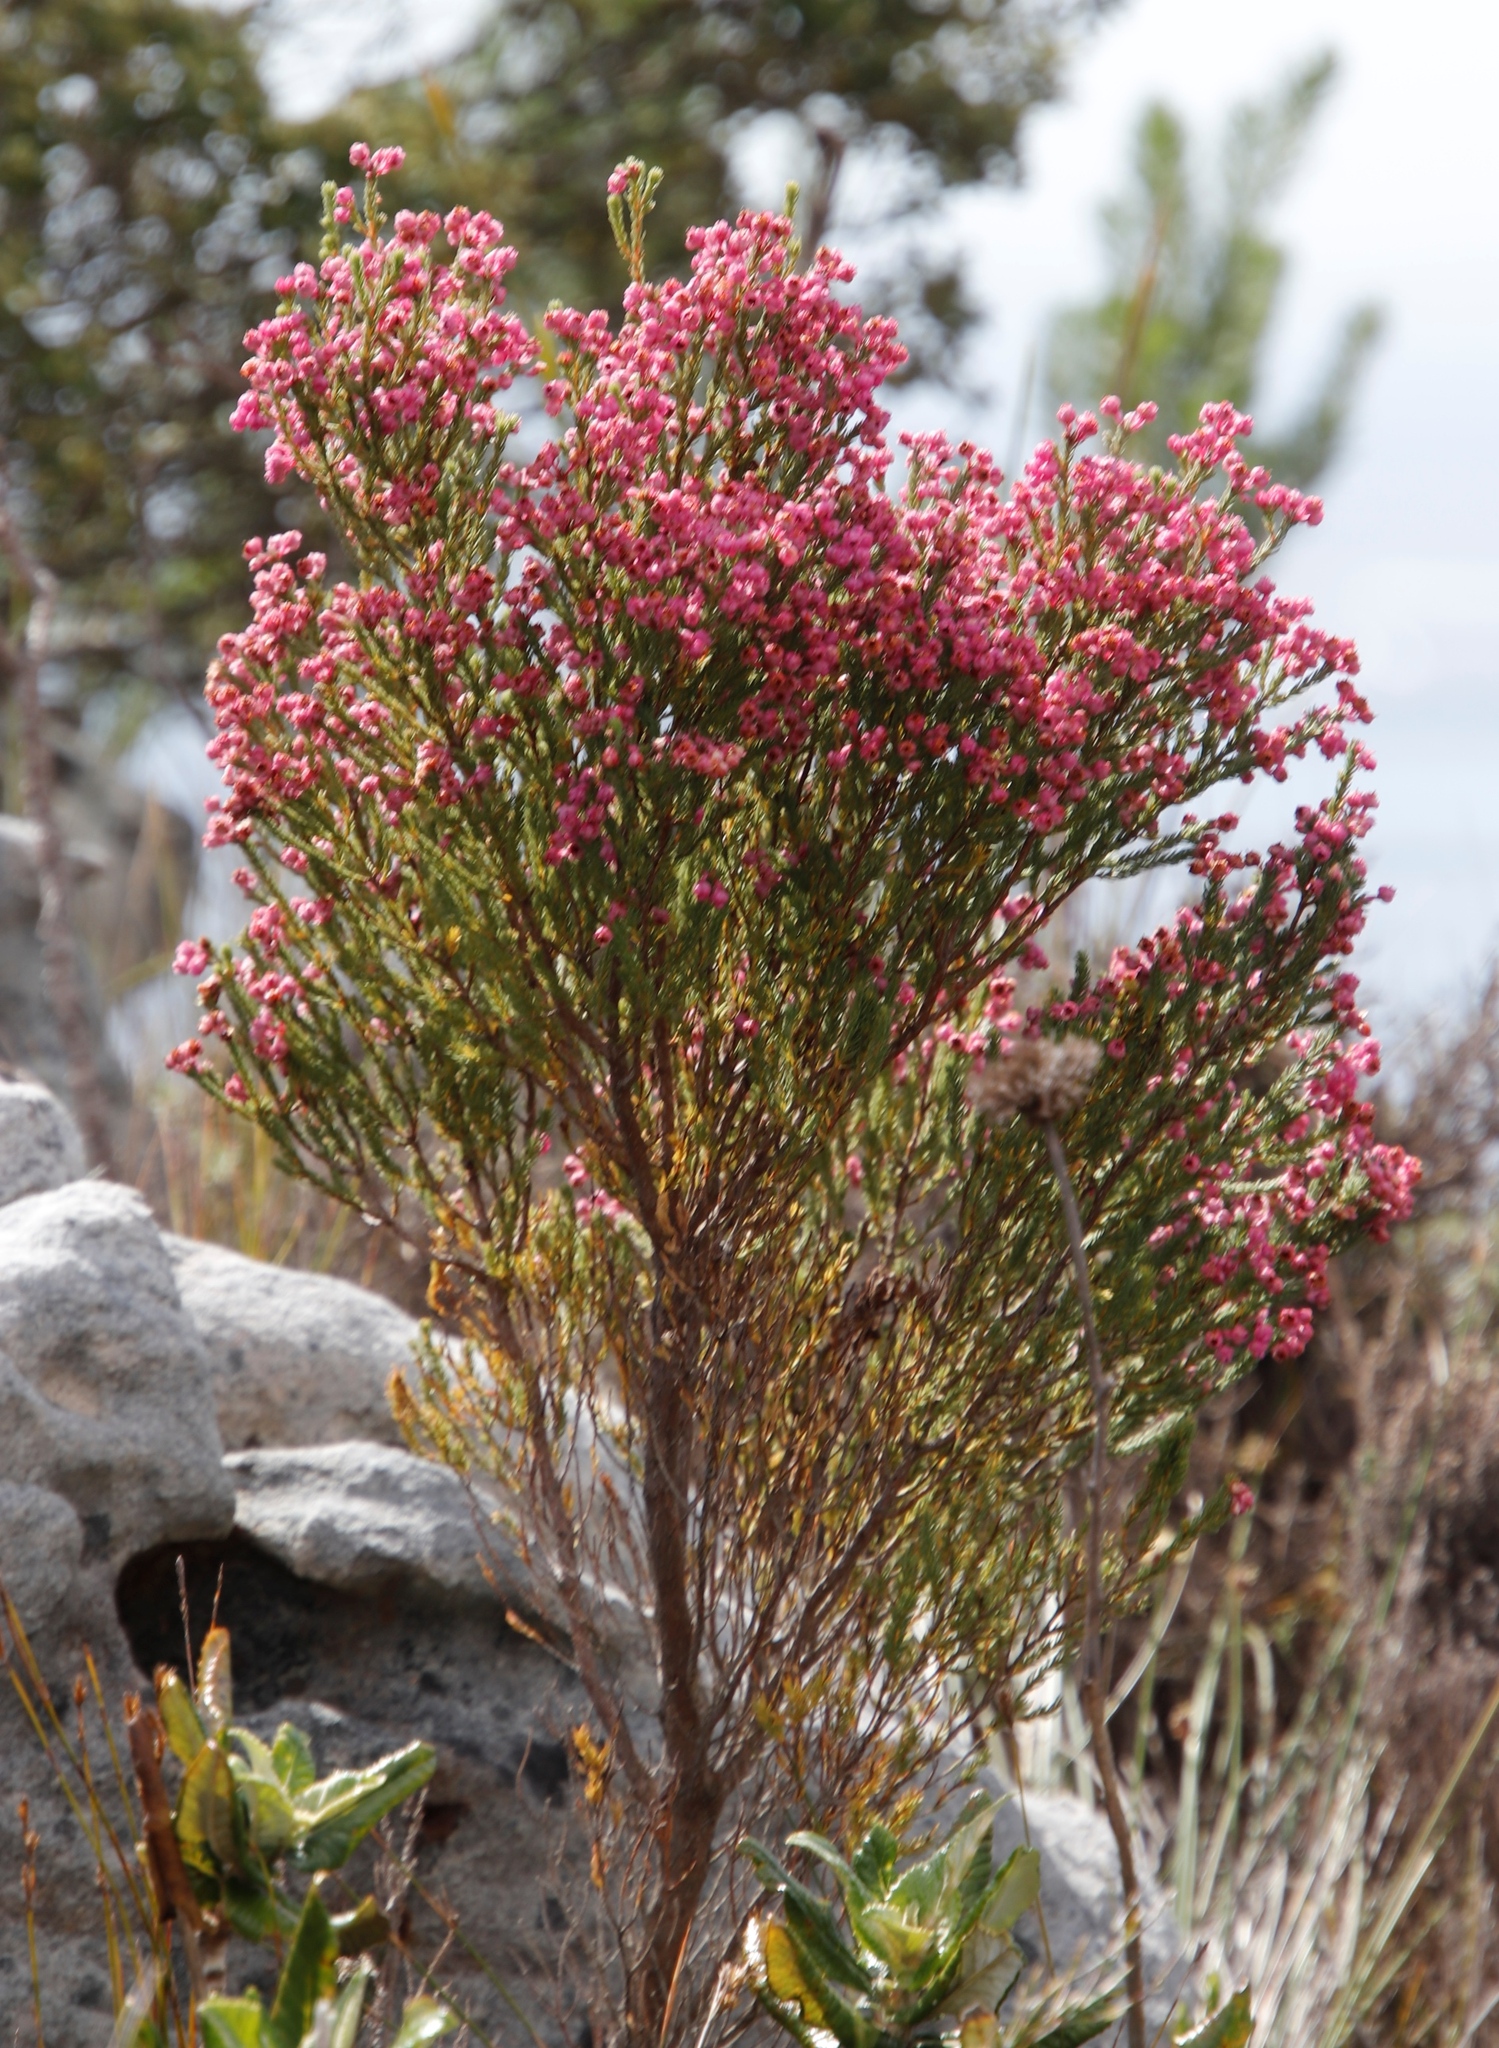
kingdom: Plantae
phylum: Tracheophyta
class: Magnoliopsida
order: Ericales
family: Ericaceae
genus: Erica
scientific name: Erica baccans
